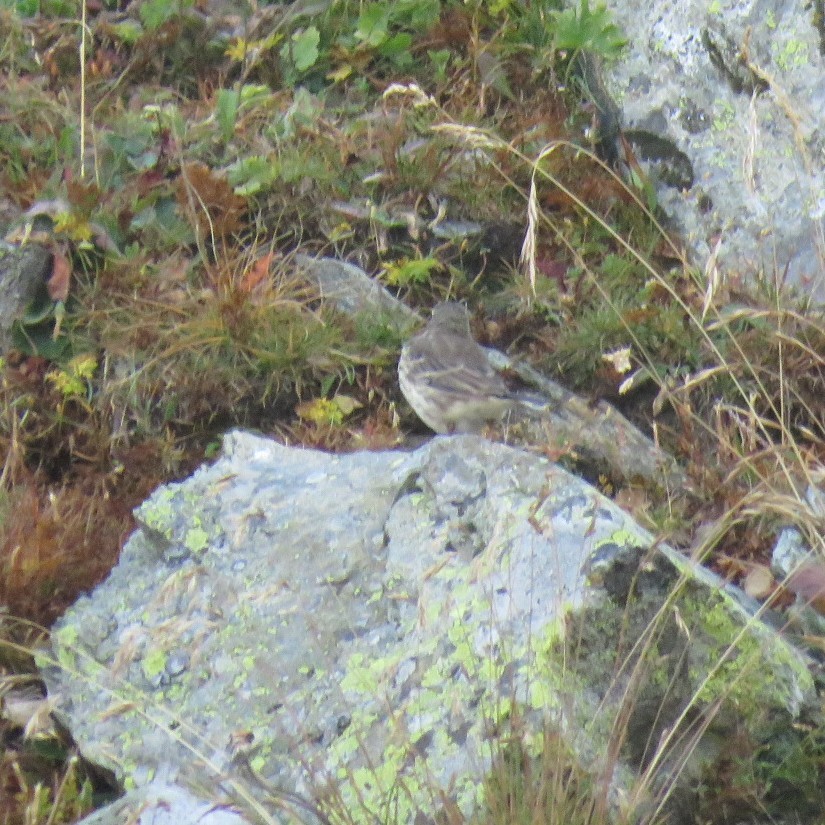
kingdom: Animalia
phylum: Chordata
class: Aves
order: Passeriformes
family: Motacillidae
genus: Anthus
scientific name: Anthus spinoletta
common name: Water pipit
